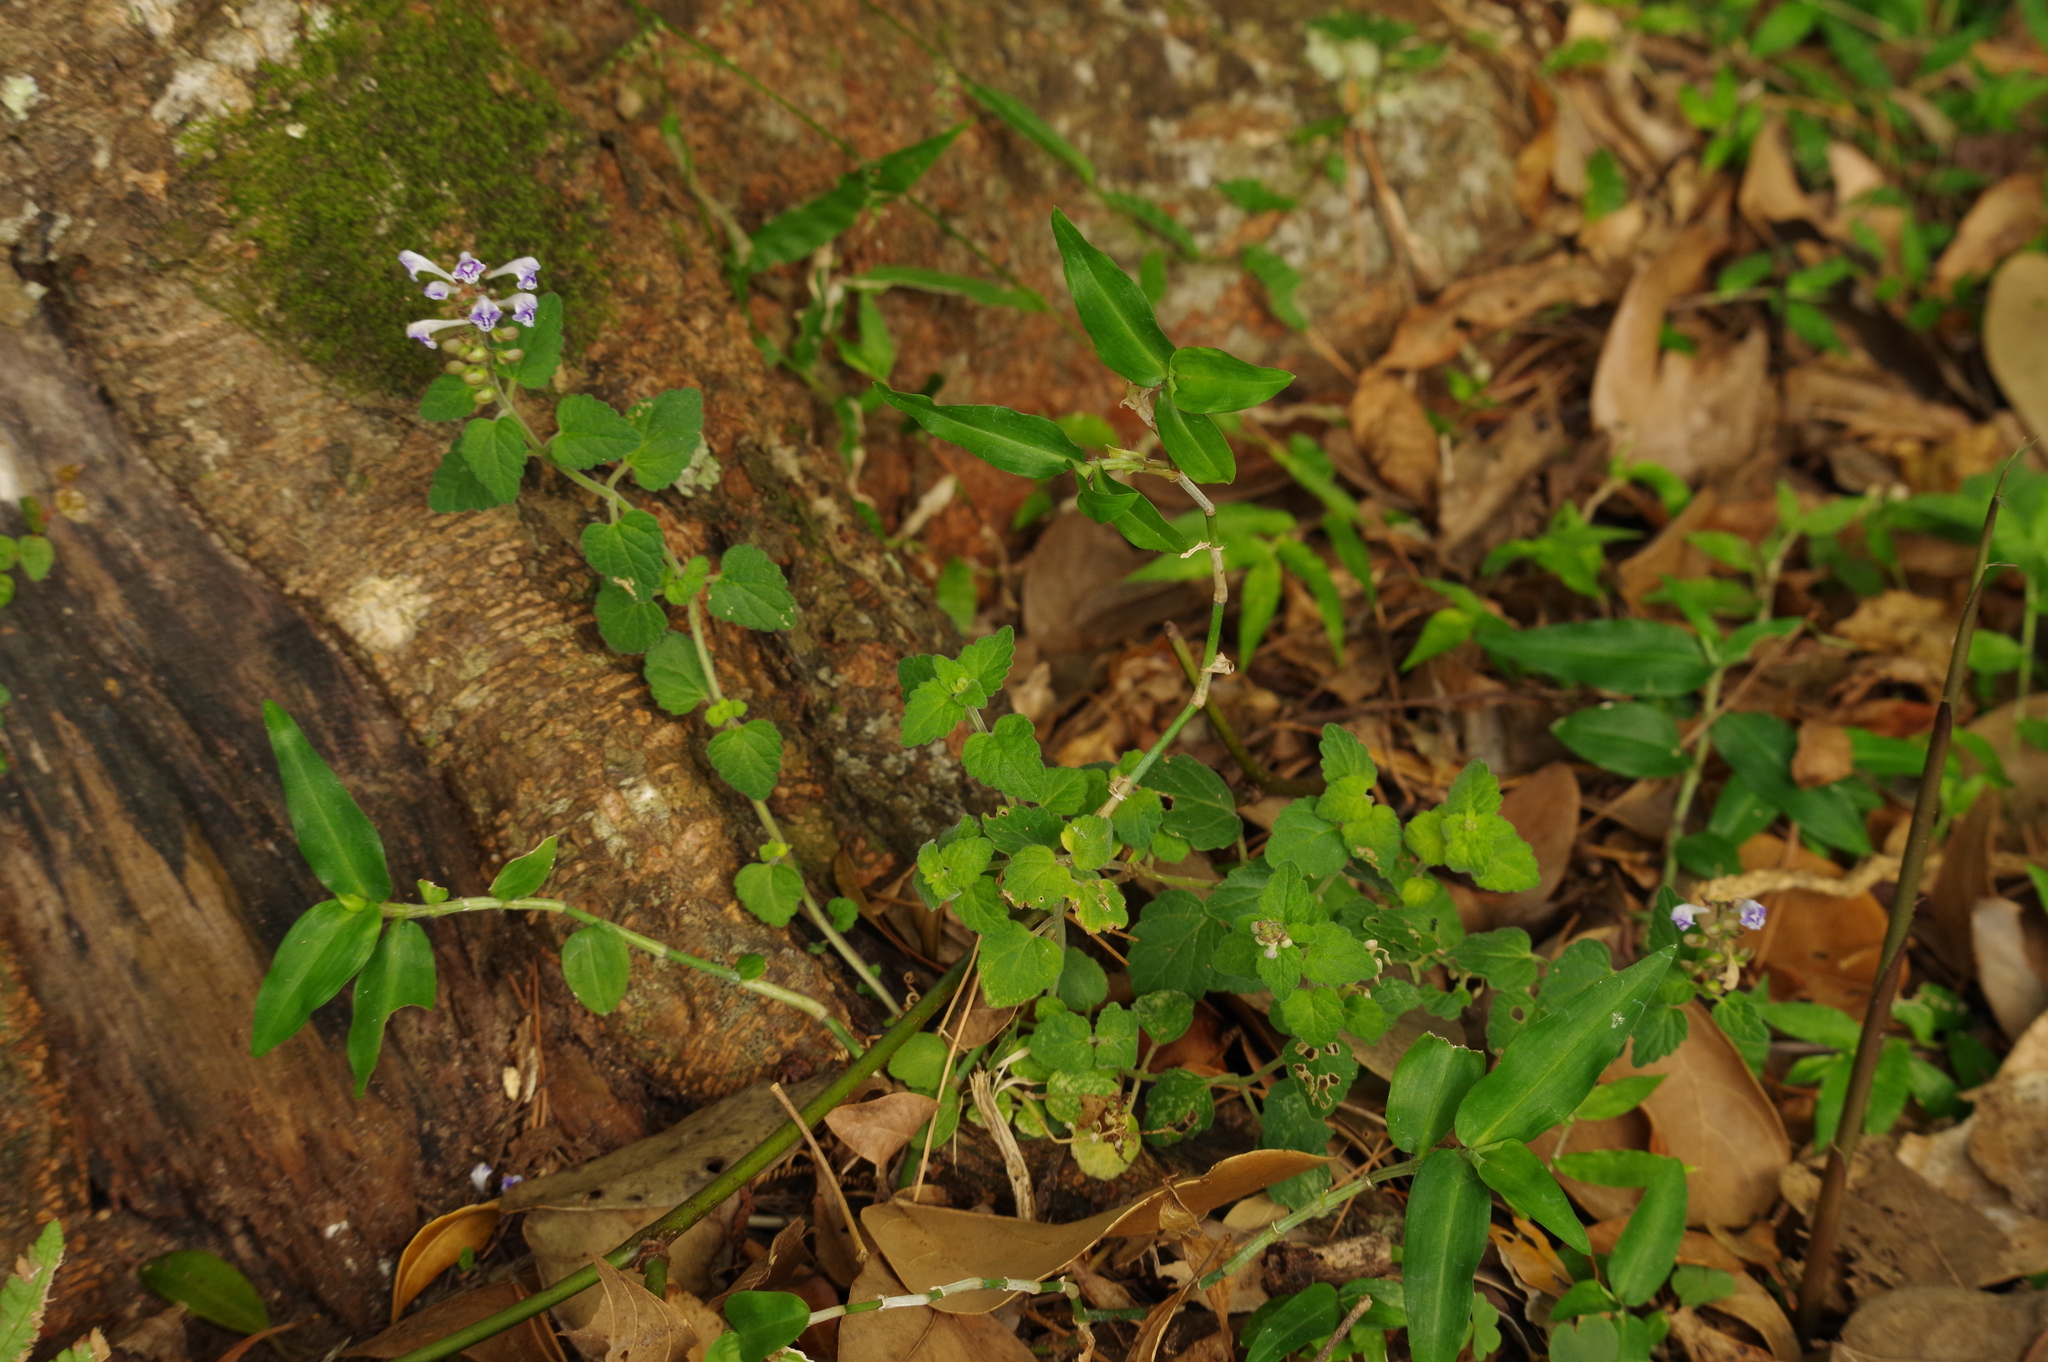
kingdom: Plantae
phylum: Tracheophyta
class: Magnoliopsida
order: Lamiales
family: Lamiaceae
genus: Scutellaria
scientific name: Scutellaria rubropunctata
